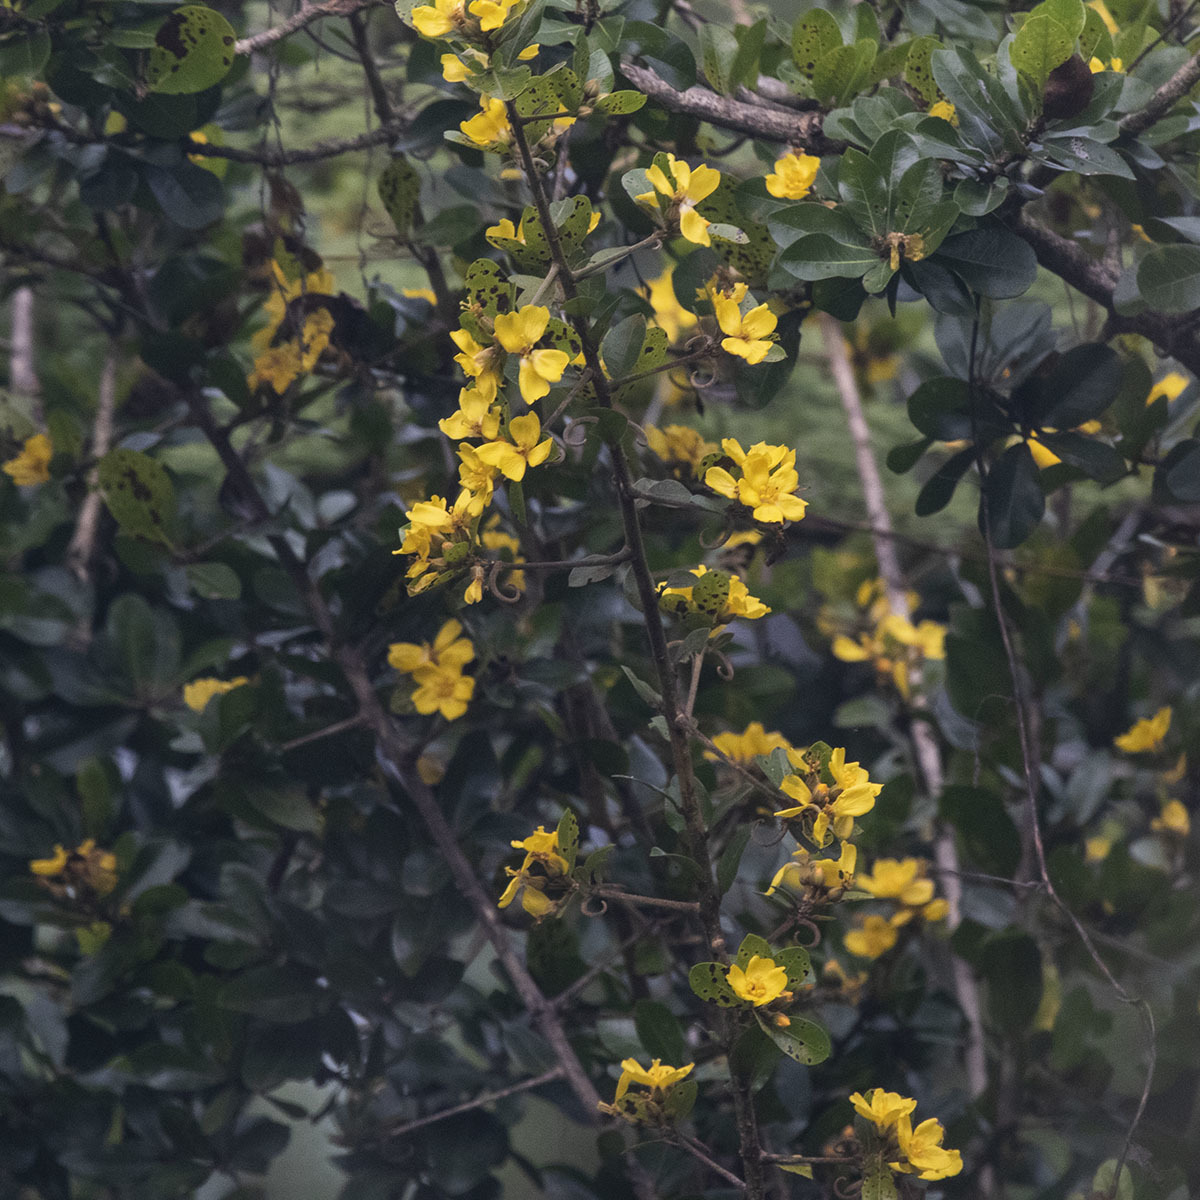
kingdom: Plantae
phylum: Tracheophyta
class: Magnoliopsida
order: Malpighiales
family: Linaceae
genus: Hugonia
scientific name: Hugonia mystax
